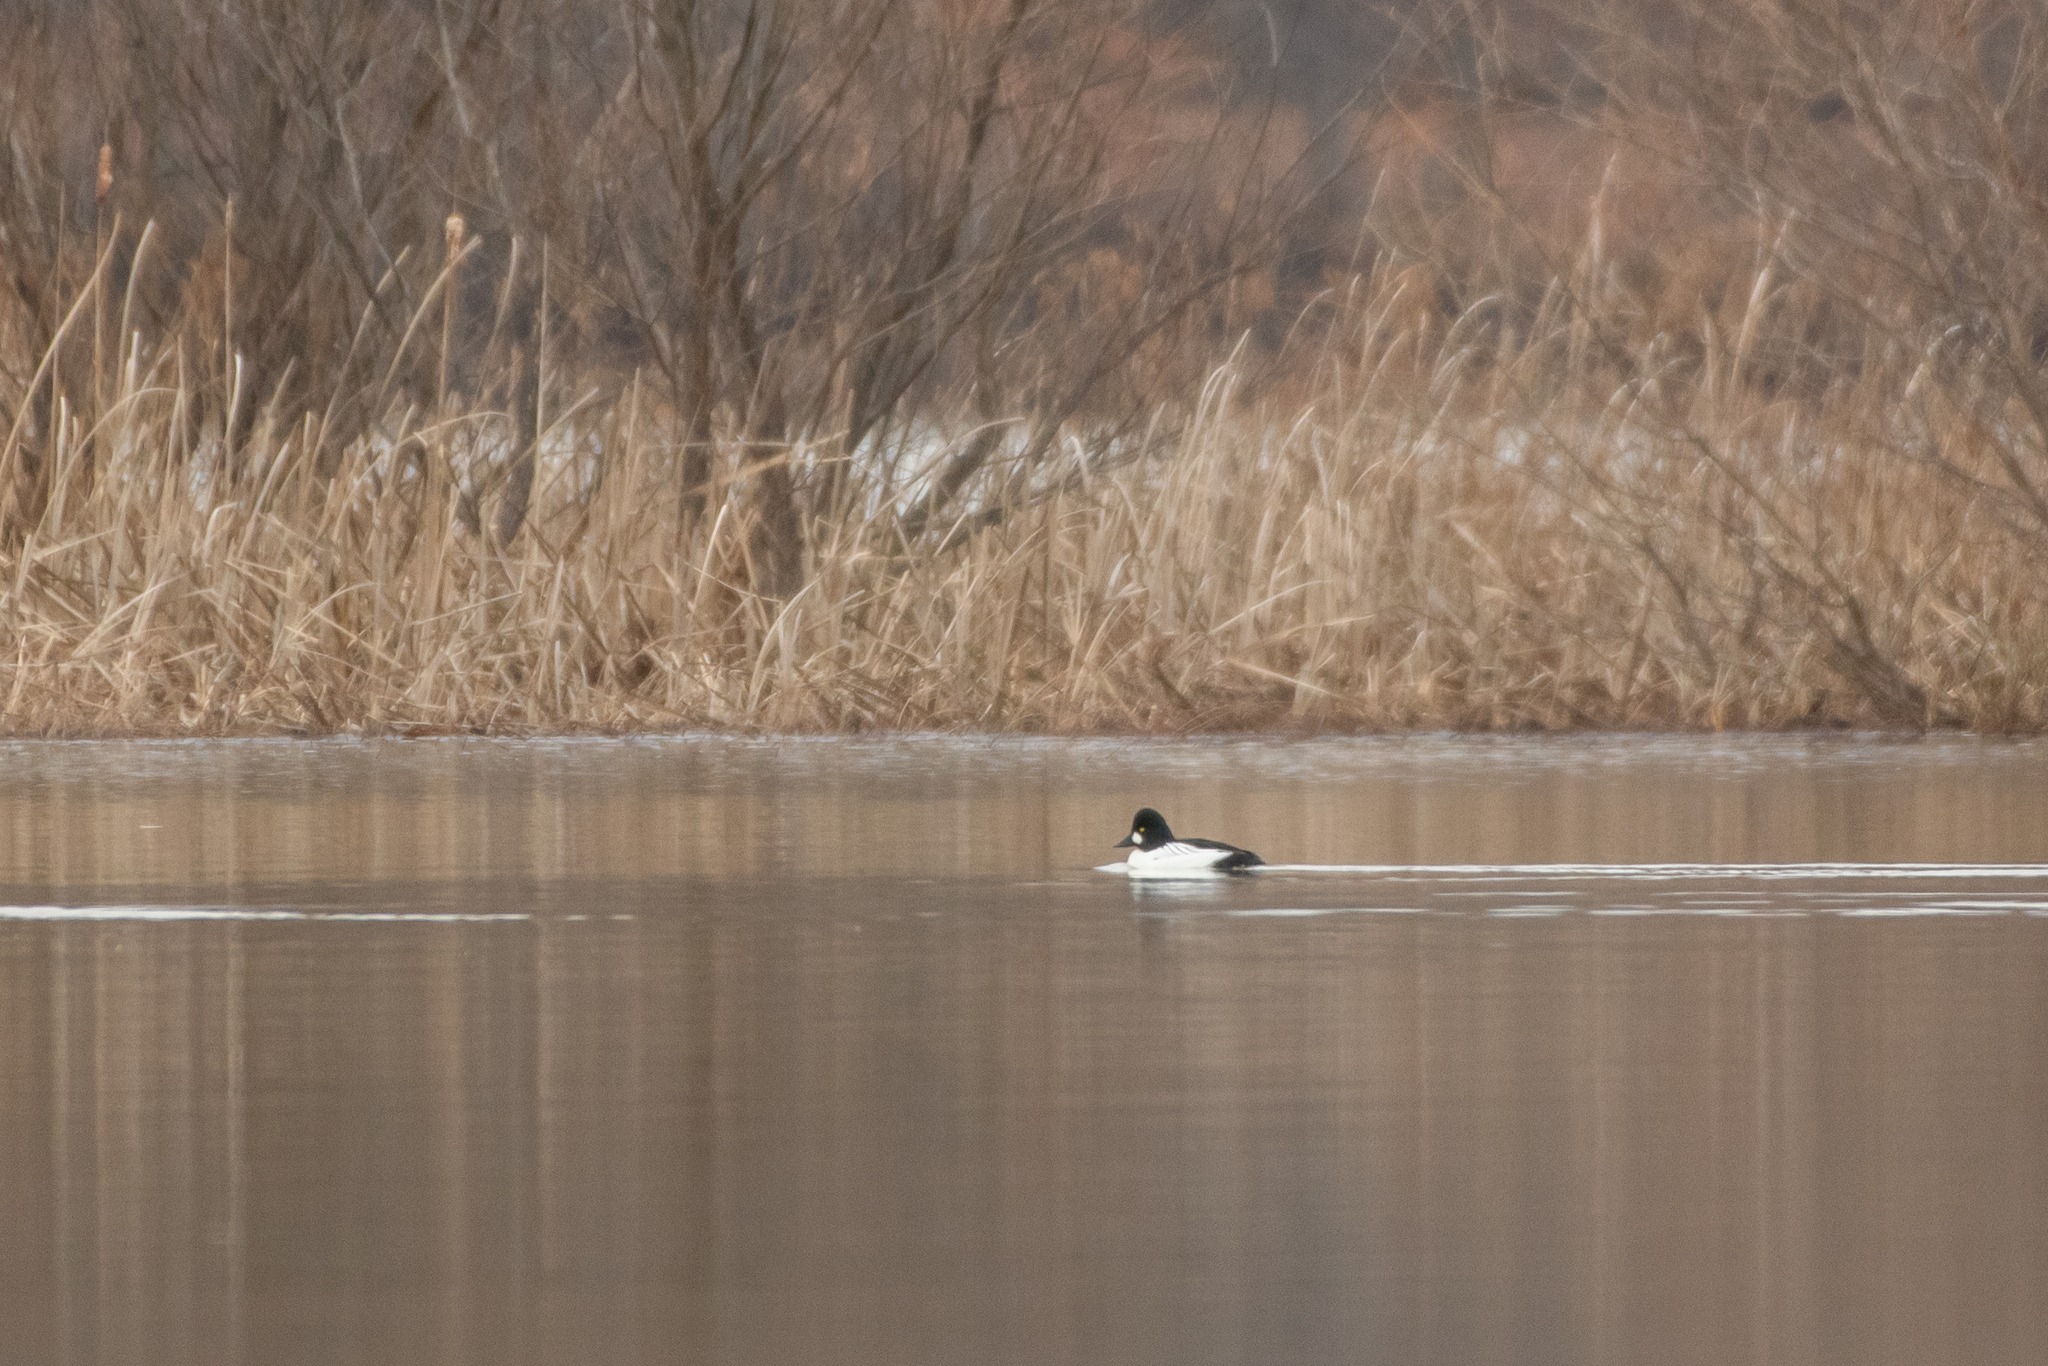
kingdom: Animalia
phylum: Chordata
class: Aves
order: Anseriformes
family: Anatidae
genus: Bucephala
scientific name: Bucephala clangula
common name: Common goldeneye
